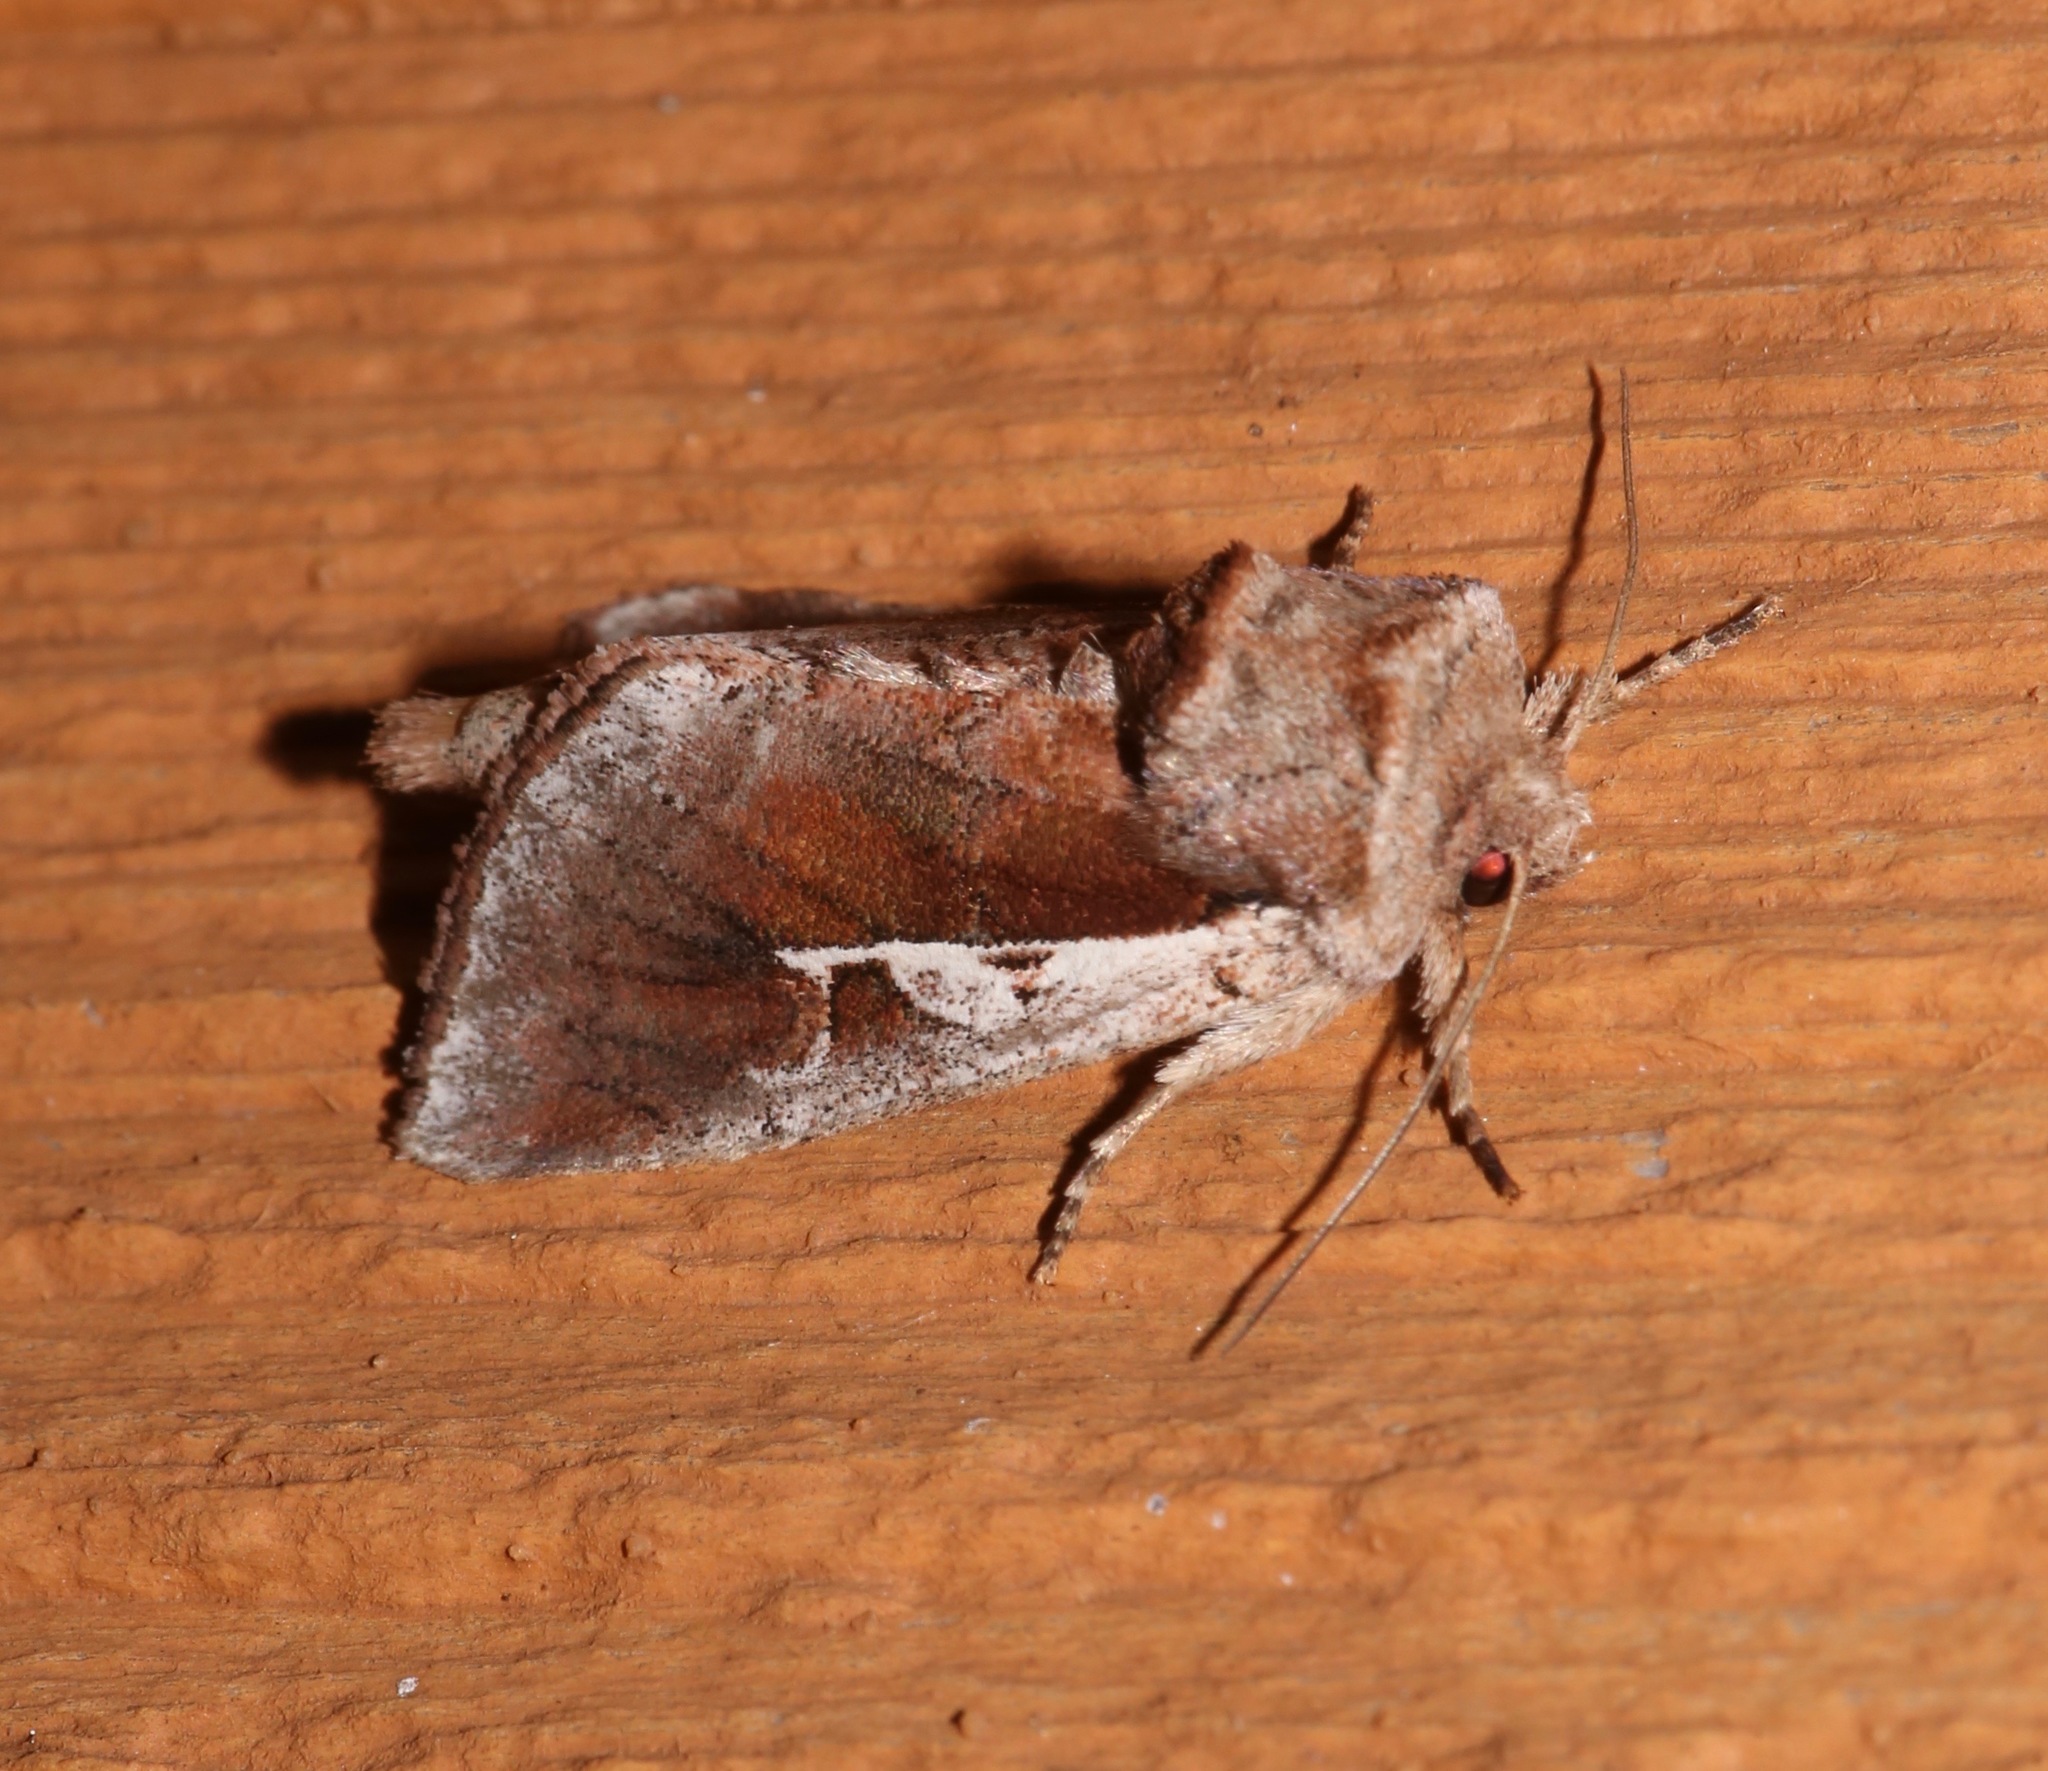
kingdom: Animalia
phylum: Arthropoda
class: Insecta
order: Lepidoptera
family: Noctuidae
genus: Meropleon
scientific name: Meropleon cosmion
